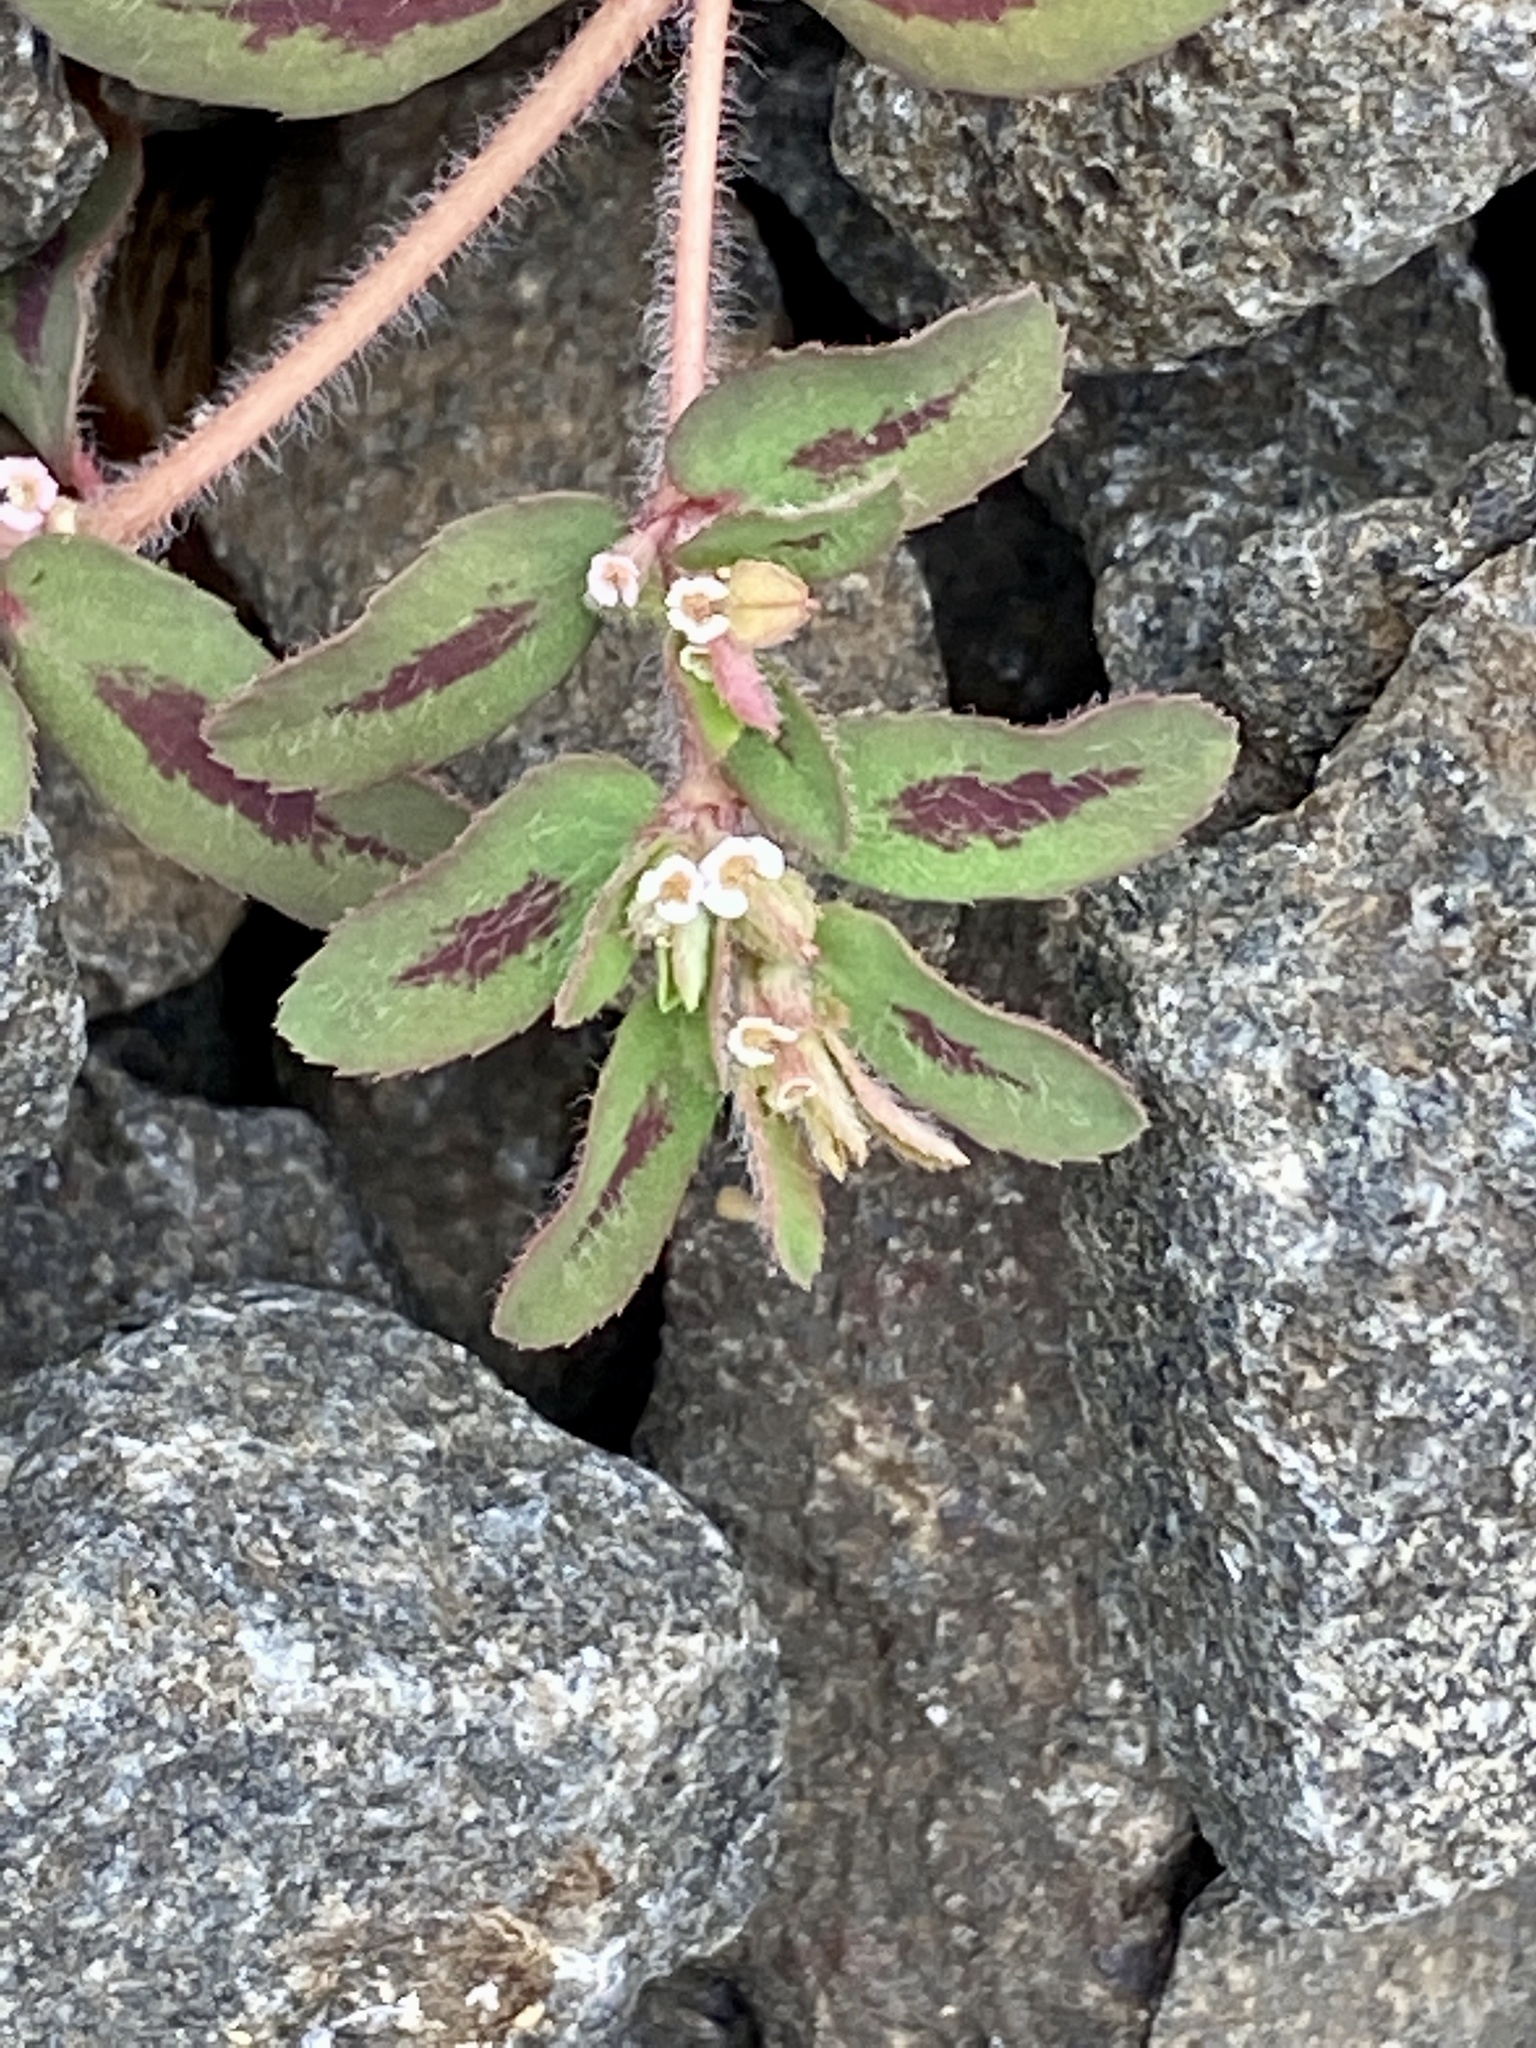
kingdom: Plantae
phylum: Tracheophyta
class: Magnoliopsida
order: Malpighiales
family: Euphorbiaceae
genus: Euphorbia
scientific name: Euphorbia maculata
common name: Spotted spurge
